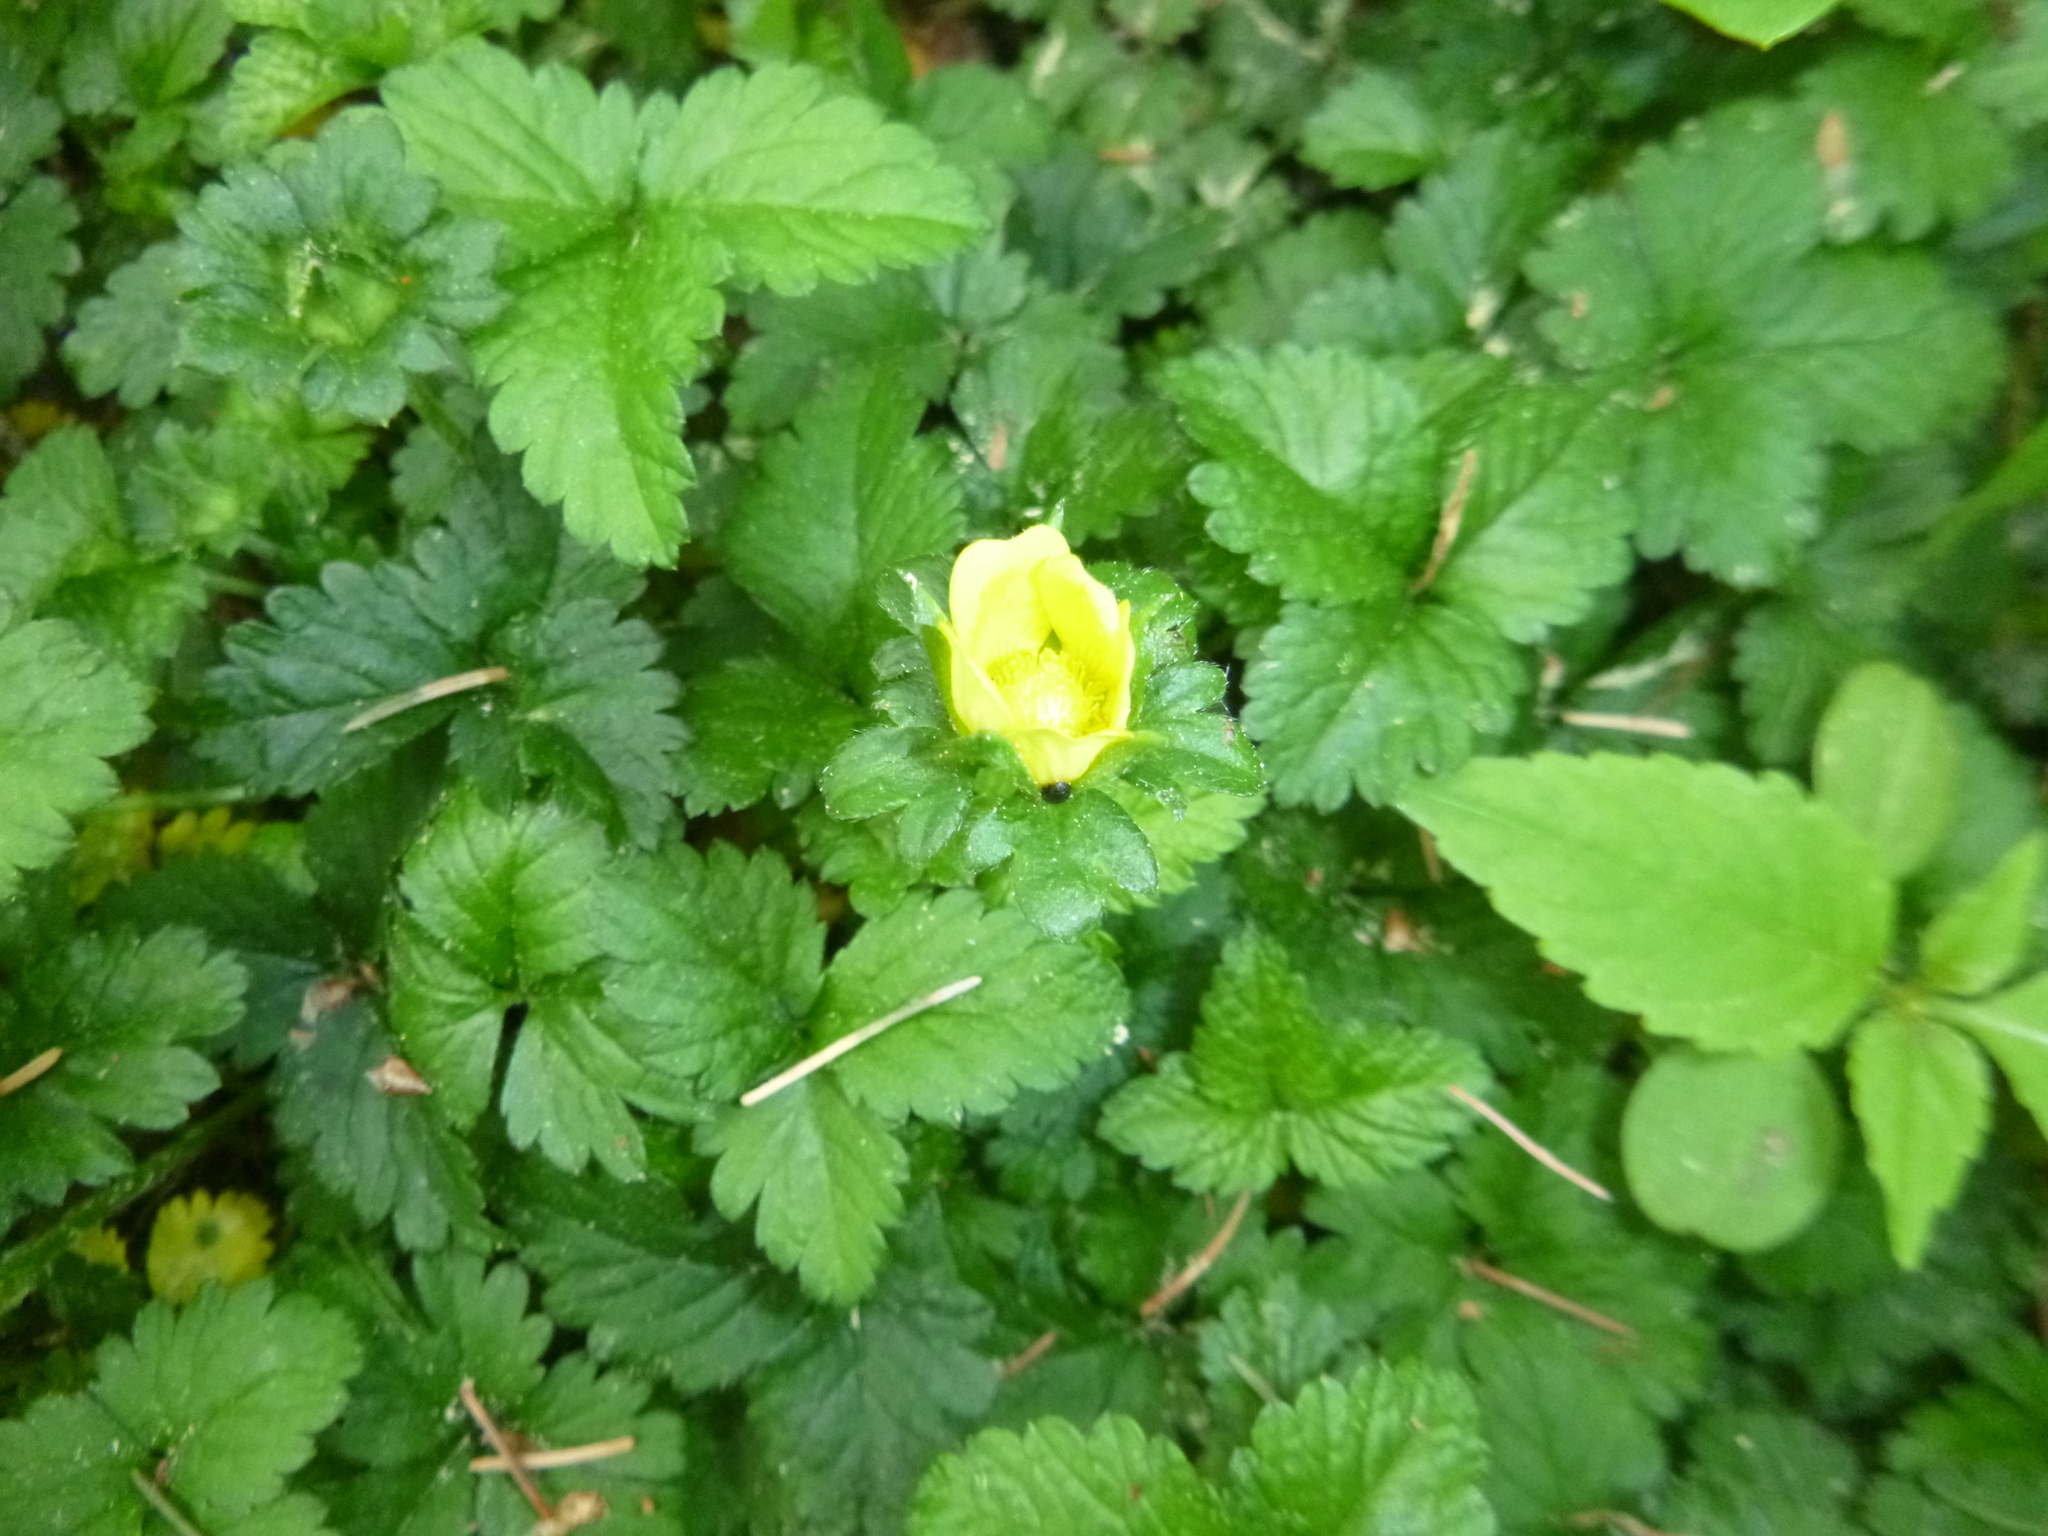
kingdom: Plantae
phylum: Tracheophyta
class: Magnoliopsida
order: Rosales
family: Rosaceae
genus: Potentilla
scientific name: Potentilla indica
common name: Yellow-flowered strawberry
